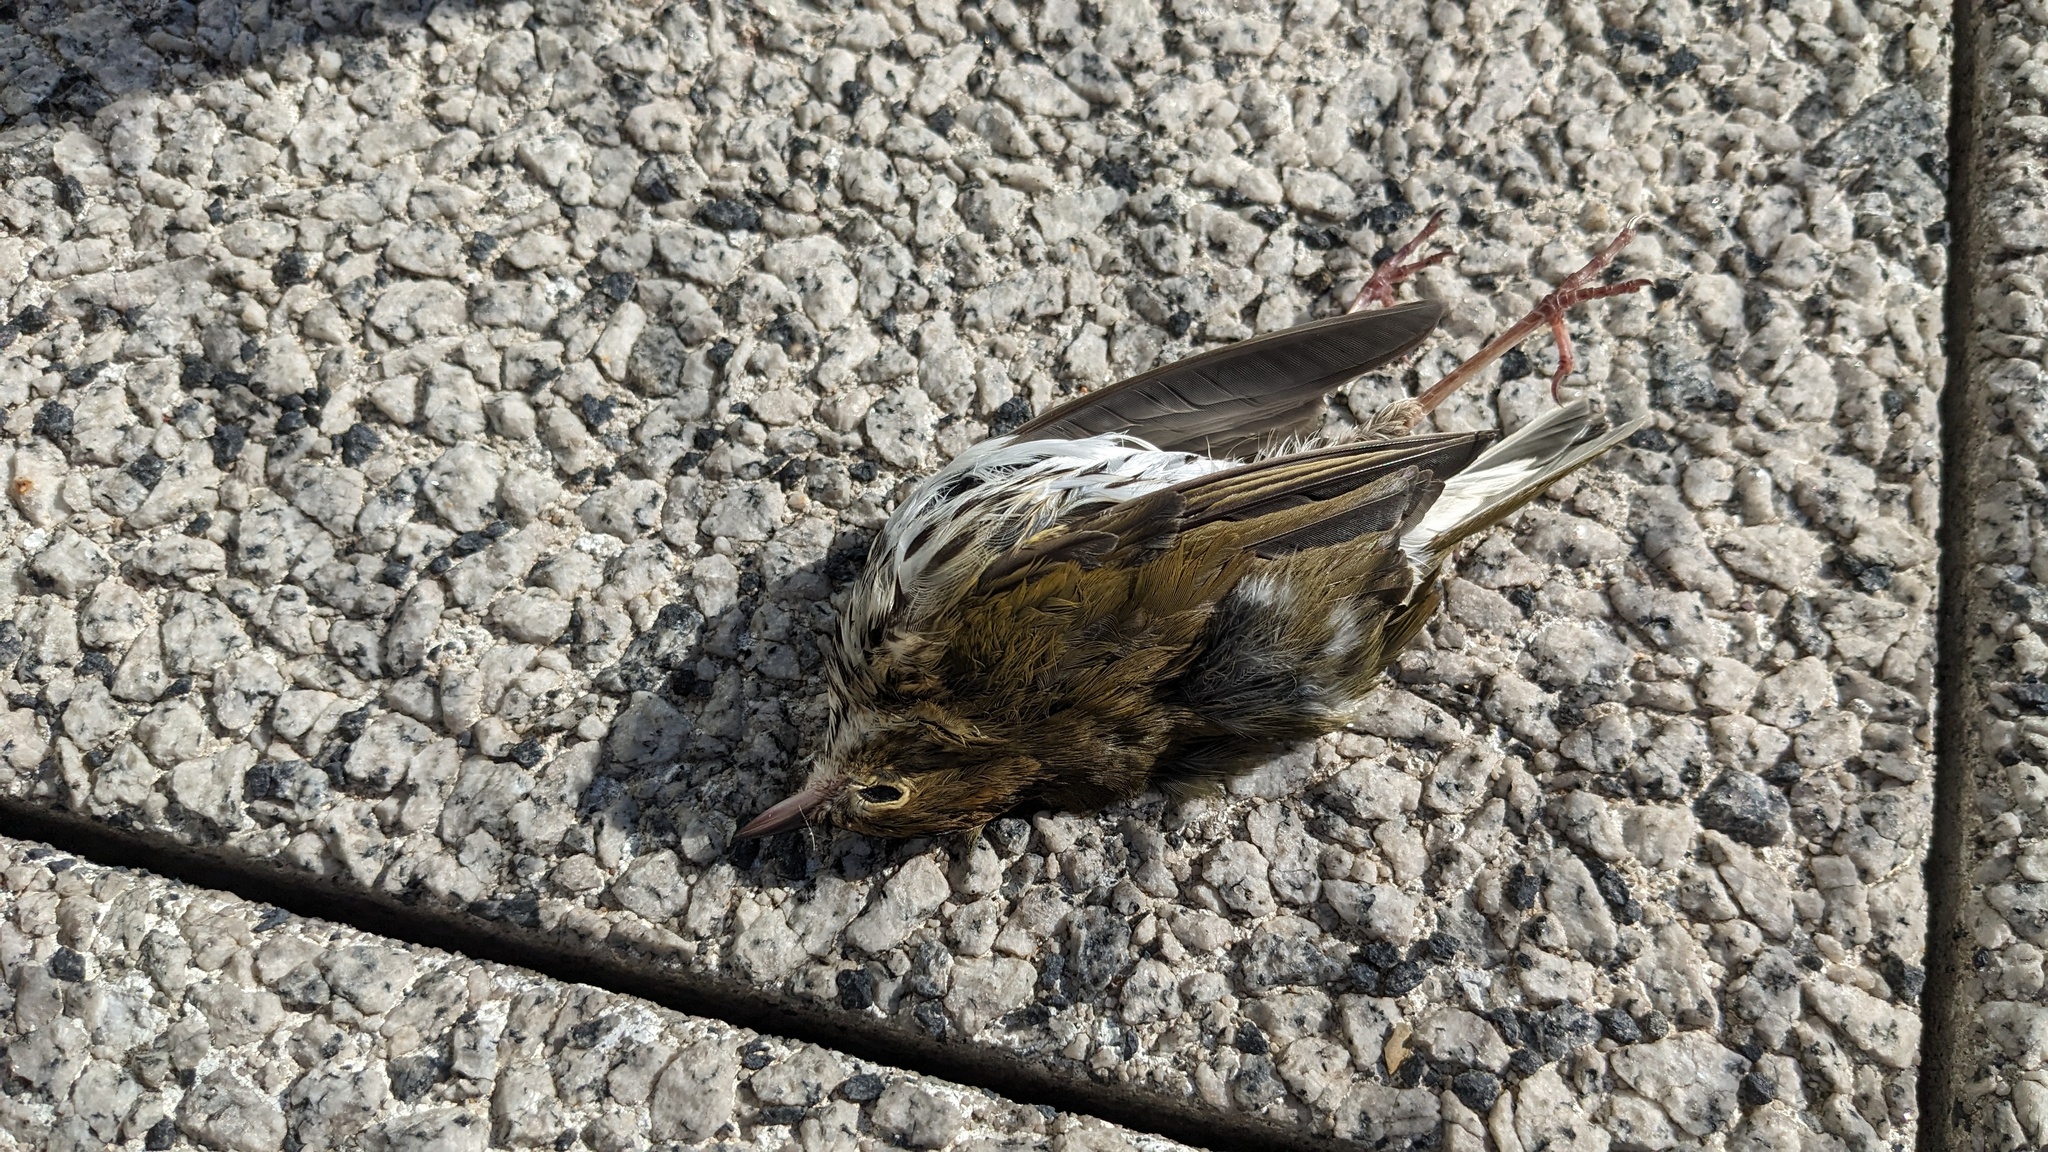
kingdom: Animalia
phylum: Chordata
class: Aves
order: Passeriformes
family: Parulidae
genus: Seiurus
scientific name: Seiurus aurocapilla
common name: Ovenbird
